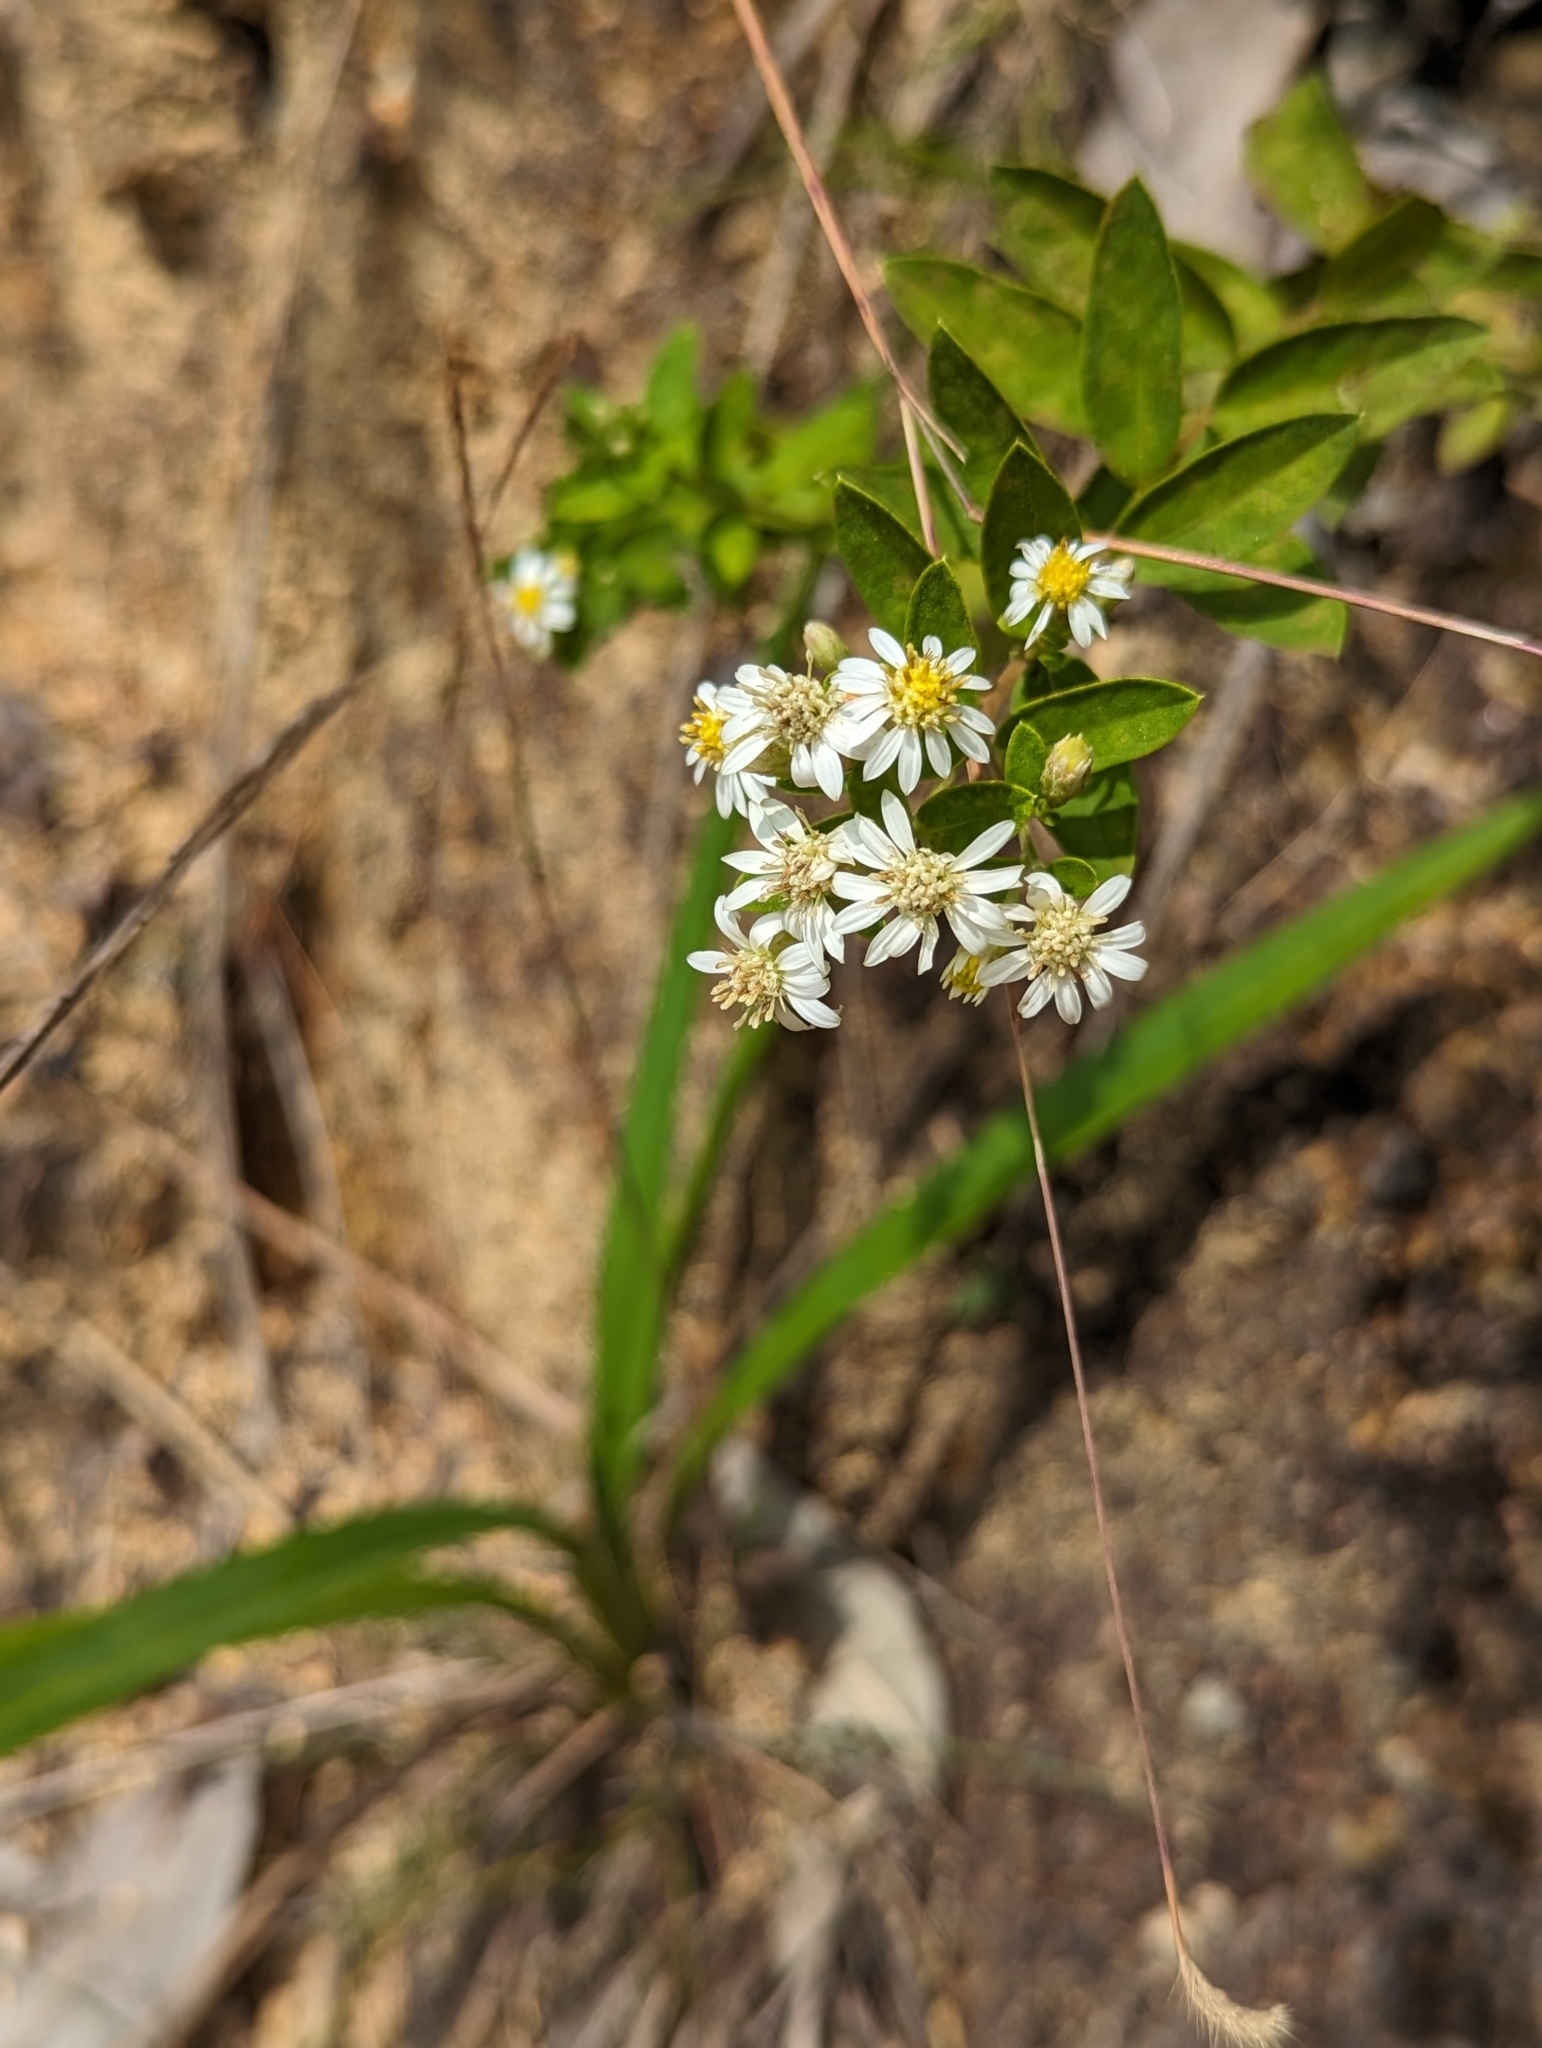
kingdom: Plantae
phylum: Tracheophyta
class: Magnoliopsida
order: Asterales
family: Asteraceae
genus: Aster
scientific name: Aster baccharoides
